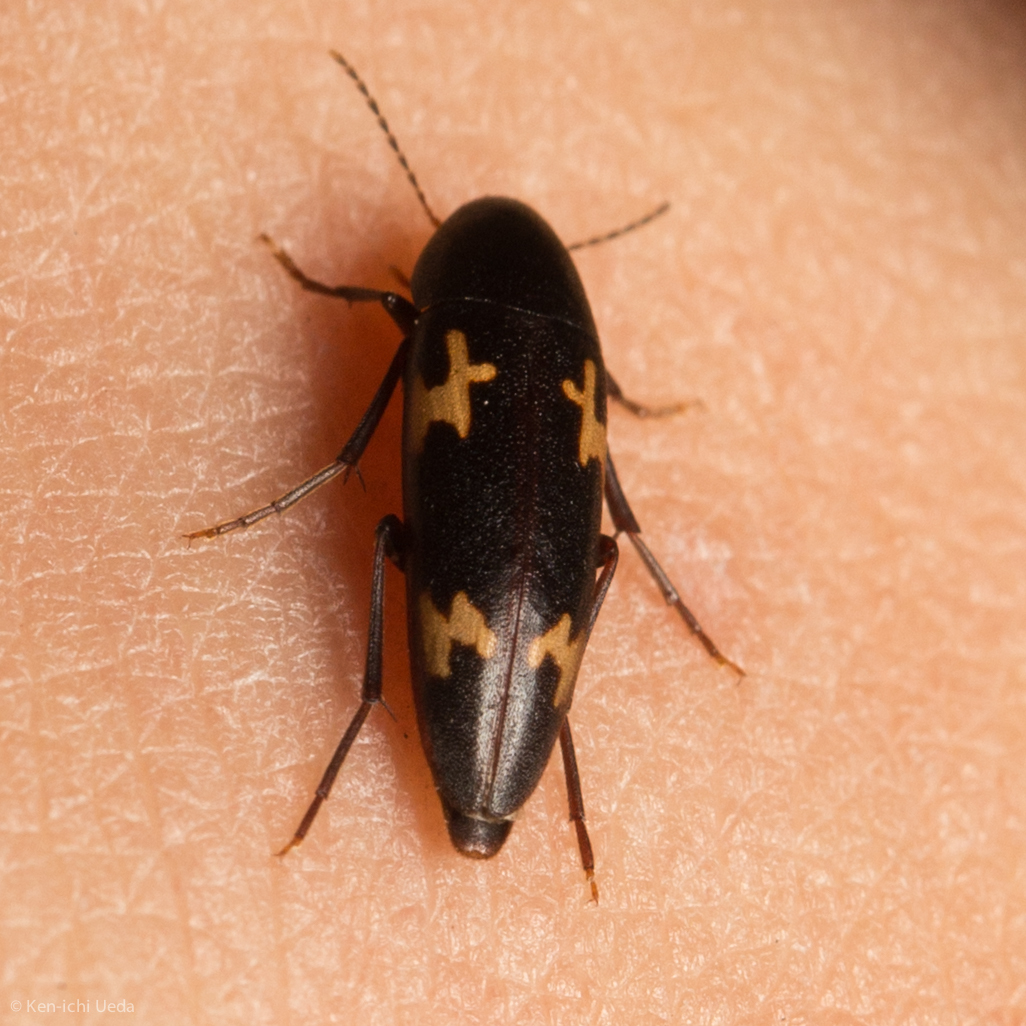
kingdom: Animalia
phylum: Arthropoda
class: Insecta
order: Coleoptera
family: Melandryidae
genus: Dircaea
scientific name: Dircaea liturata
